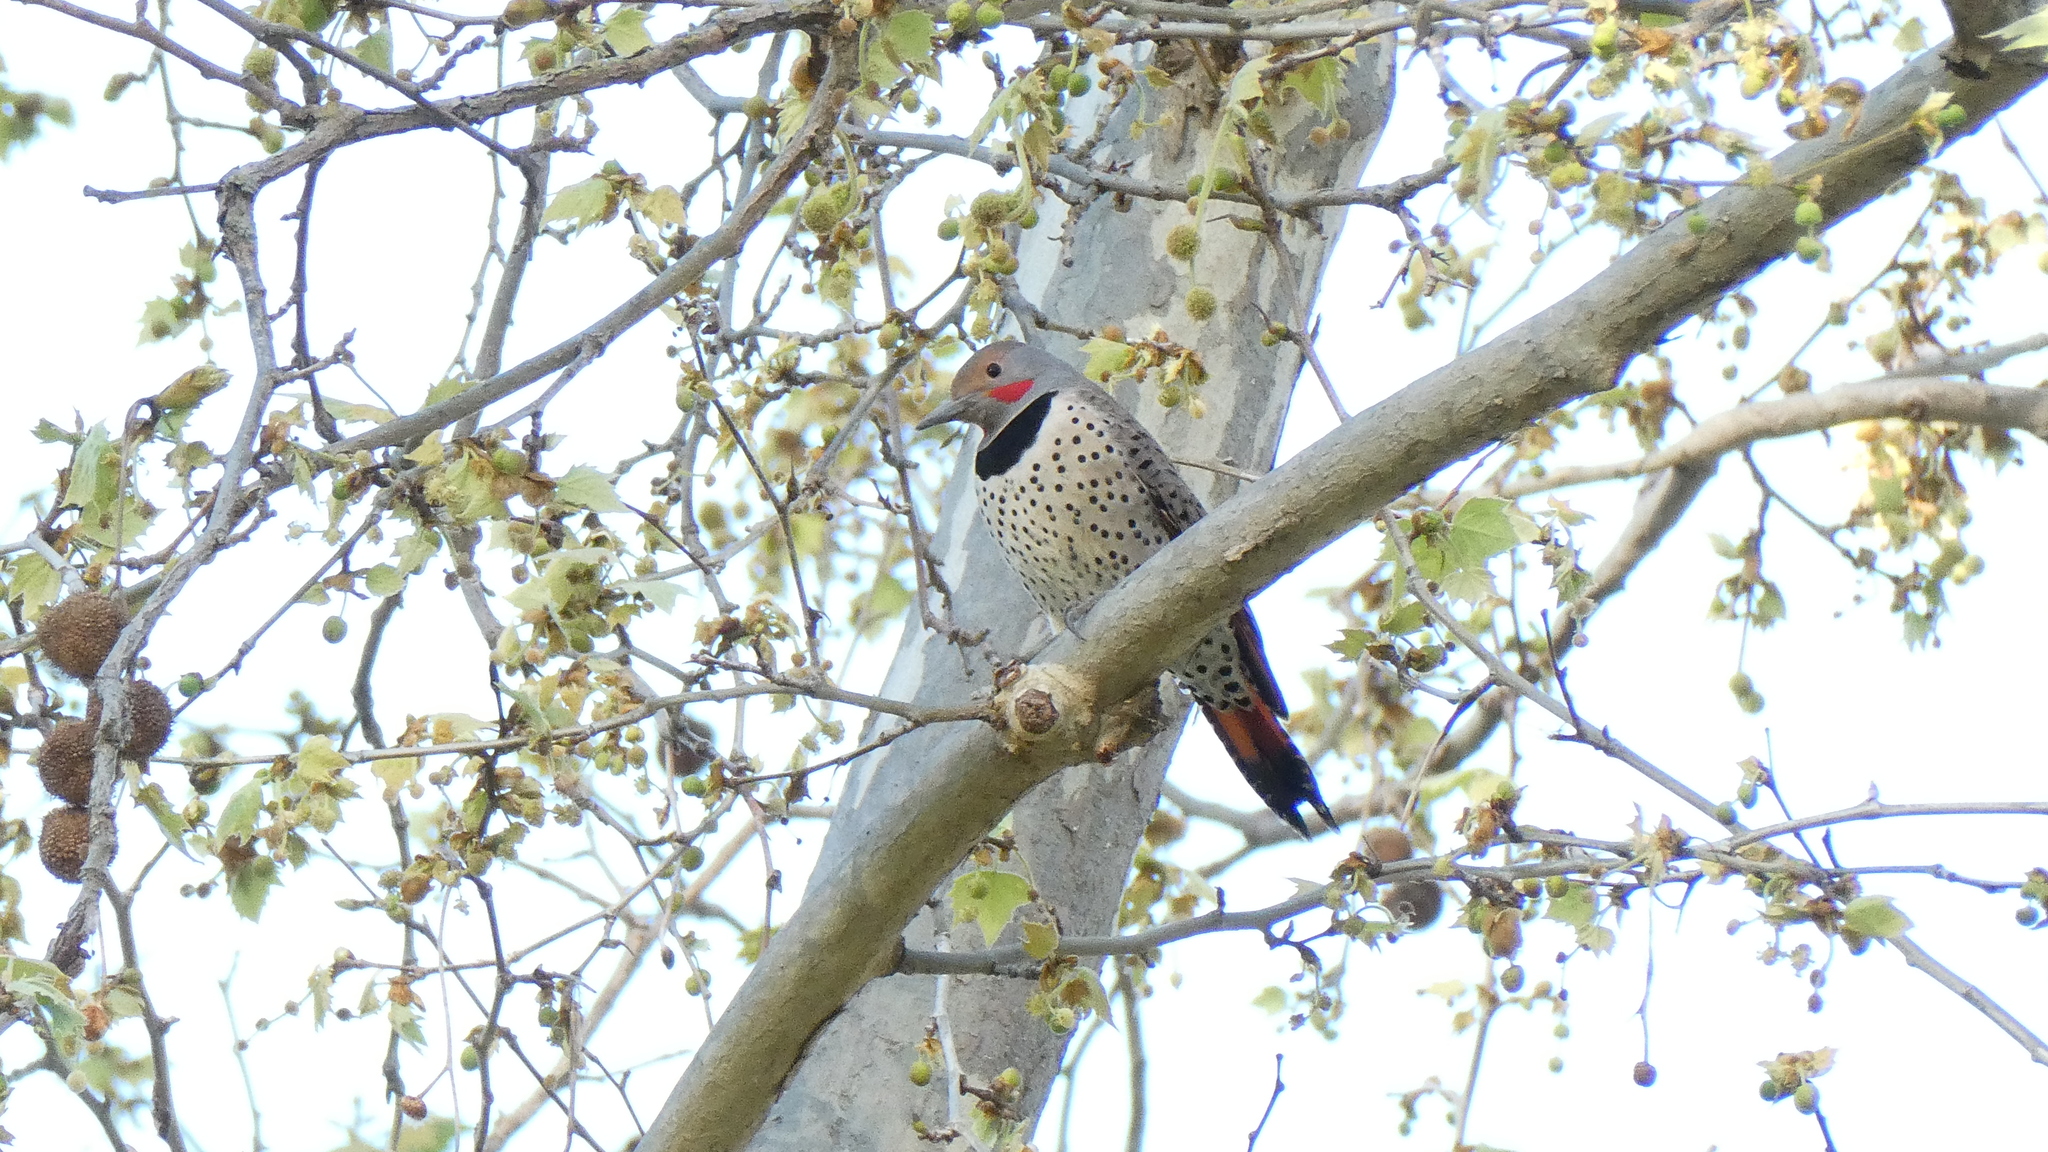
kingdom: Animalia
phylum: Chordata
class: Aves
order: Piciformes
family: Picidae
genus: Colaptes
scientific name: Colaptes auratus
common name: Northern flicker
